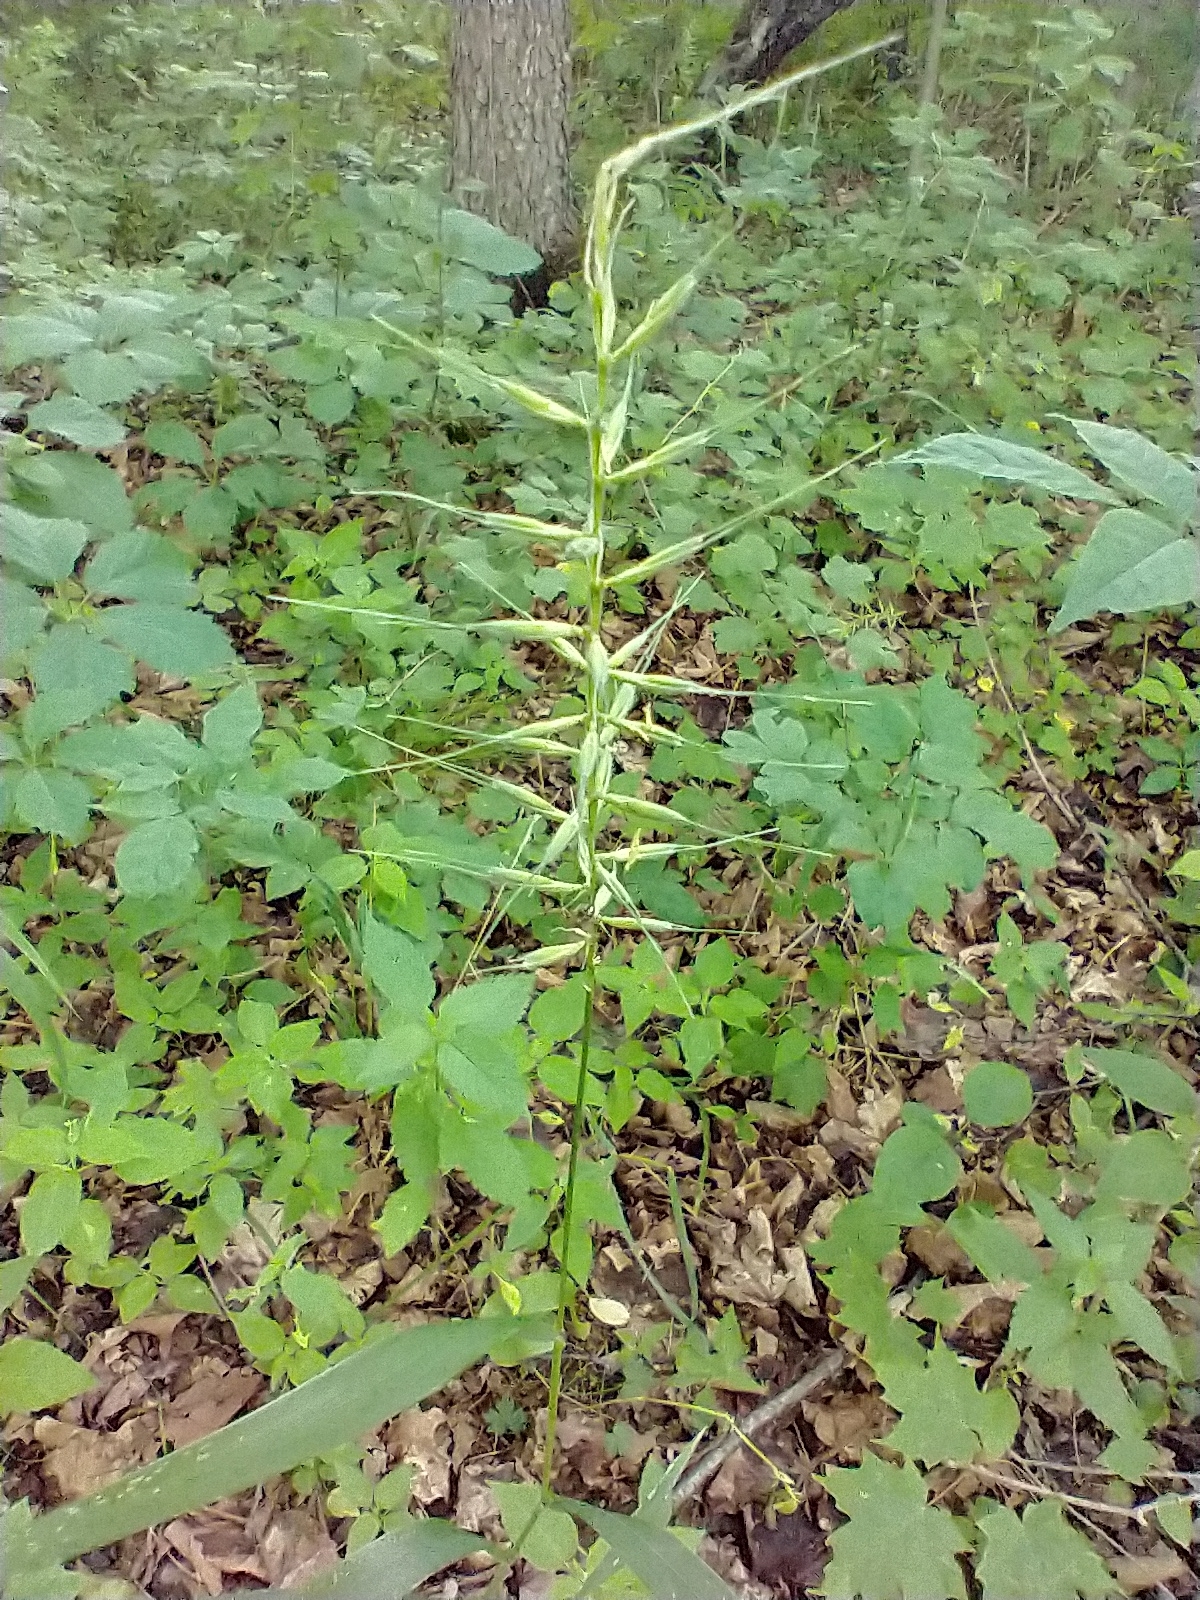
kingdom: Plantae
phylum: Tracheophyta
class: Liliopsida
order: Poales
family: Poaceae
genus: Elymus
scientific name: Elymus hystrix
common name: Bottlebrush grass
